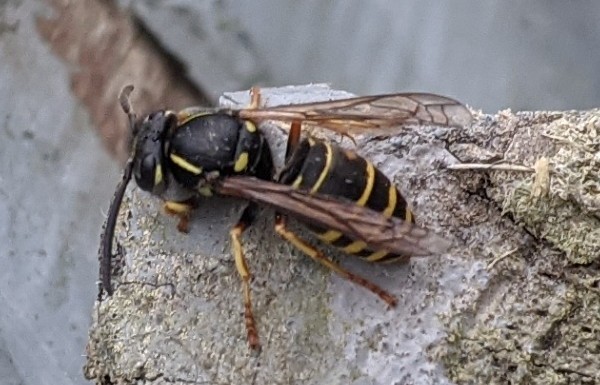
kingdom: Animalia
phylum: Arthropoda
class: Insecta
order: Hymenoptera
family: Vespidae
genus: Vespula
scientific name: Vespula acadica
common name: Forest yellowjacket
